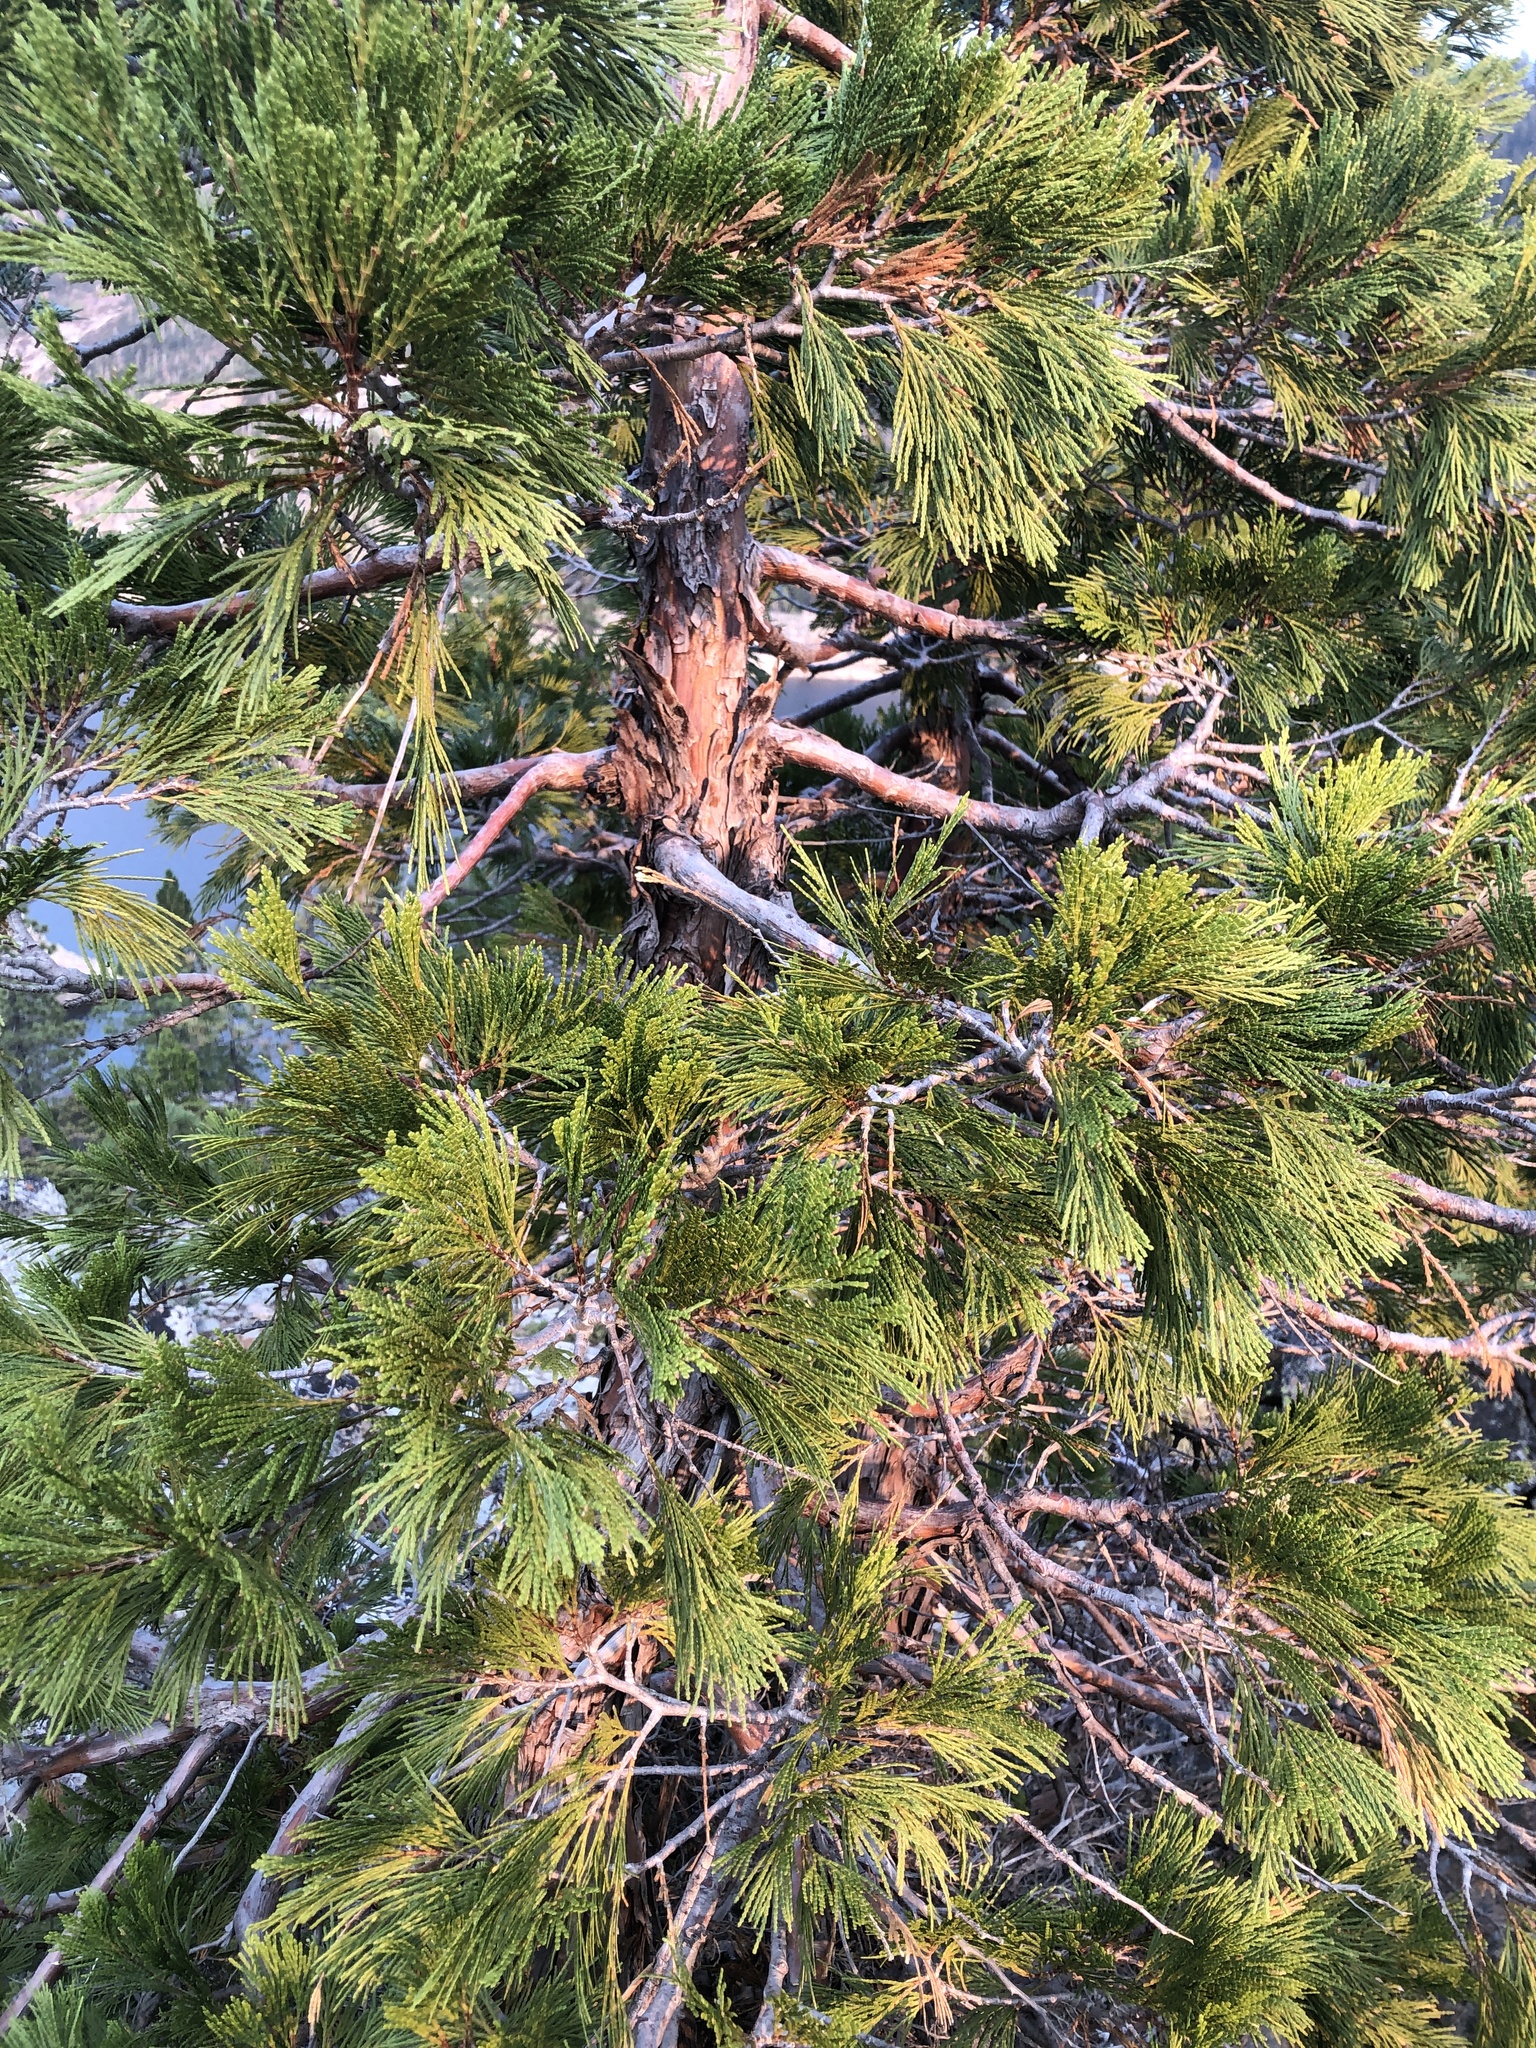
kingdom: Plantae
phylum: Tracheophyta
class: Pinopsida
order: Pinales
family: Cupressaceae
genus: Calocedrus
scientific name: Calocedrus decurrens
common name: Californian incense-cedar
